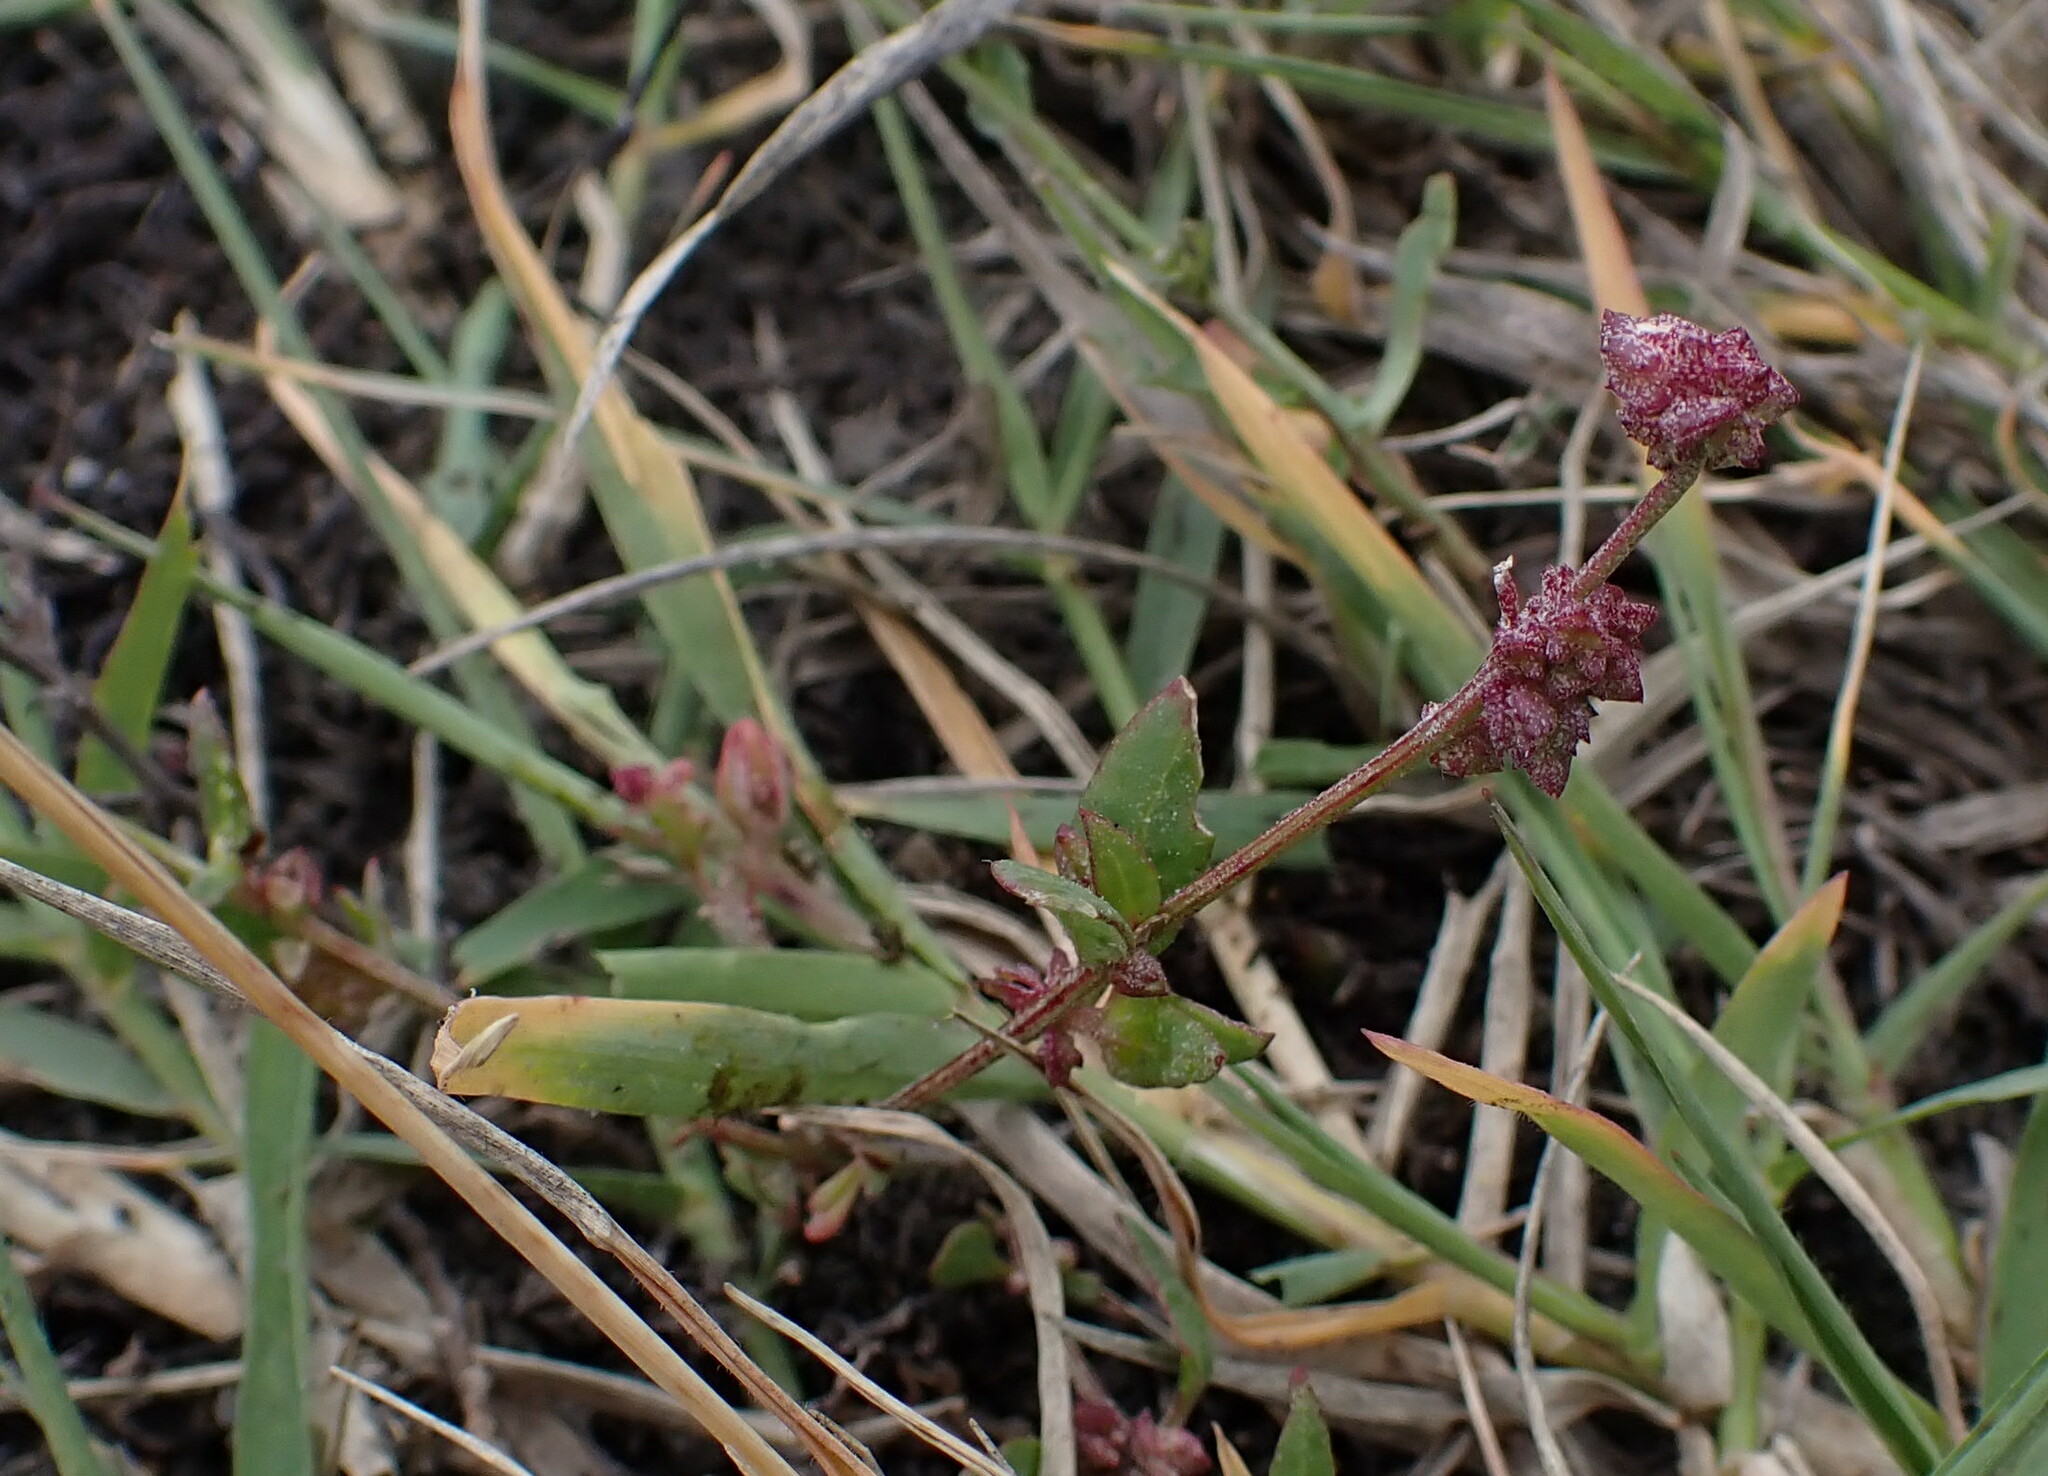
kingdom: Plantae
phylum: Tracheophyta
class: Magnoliopsida
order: Caryophyllales
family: Amaranthaceae
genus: Atriplex
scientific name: Atriplex prostrata
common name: Spear-leaved orache
